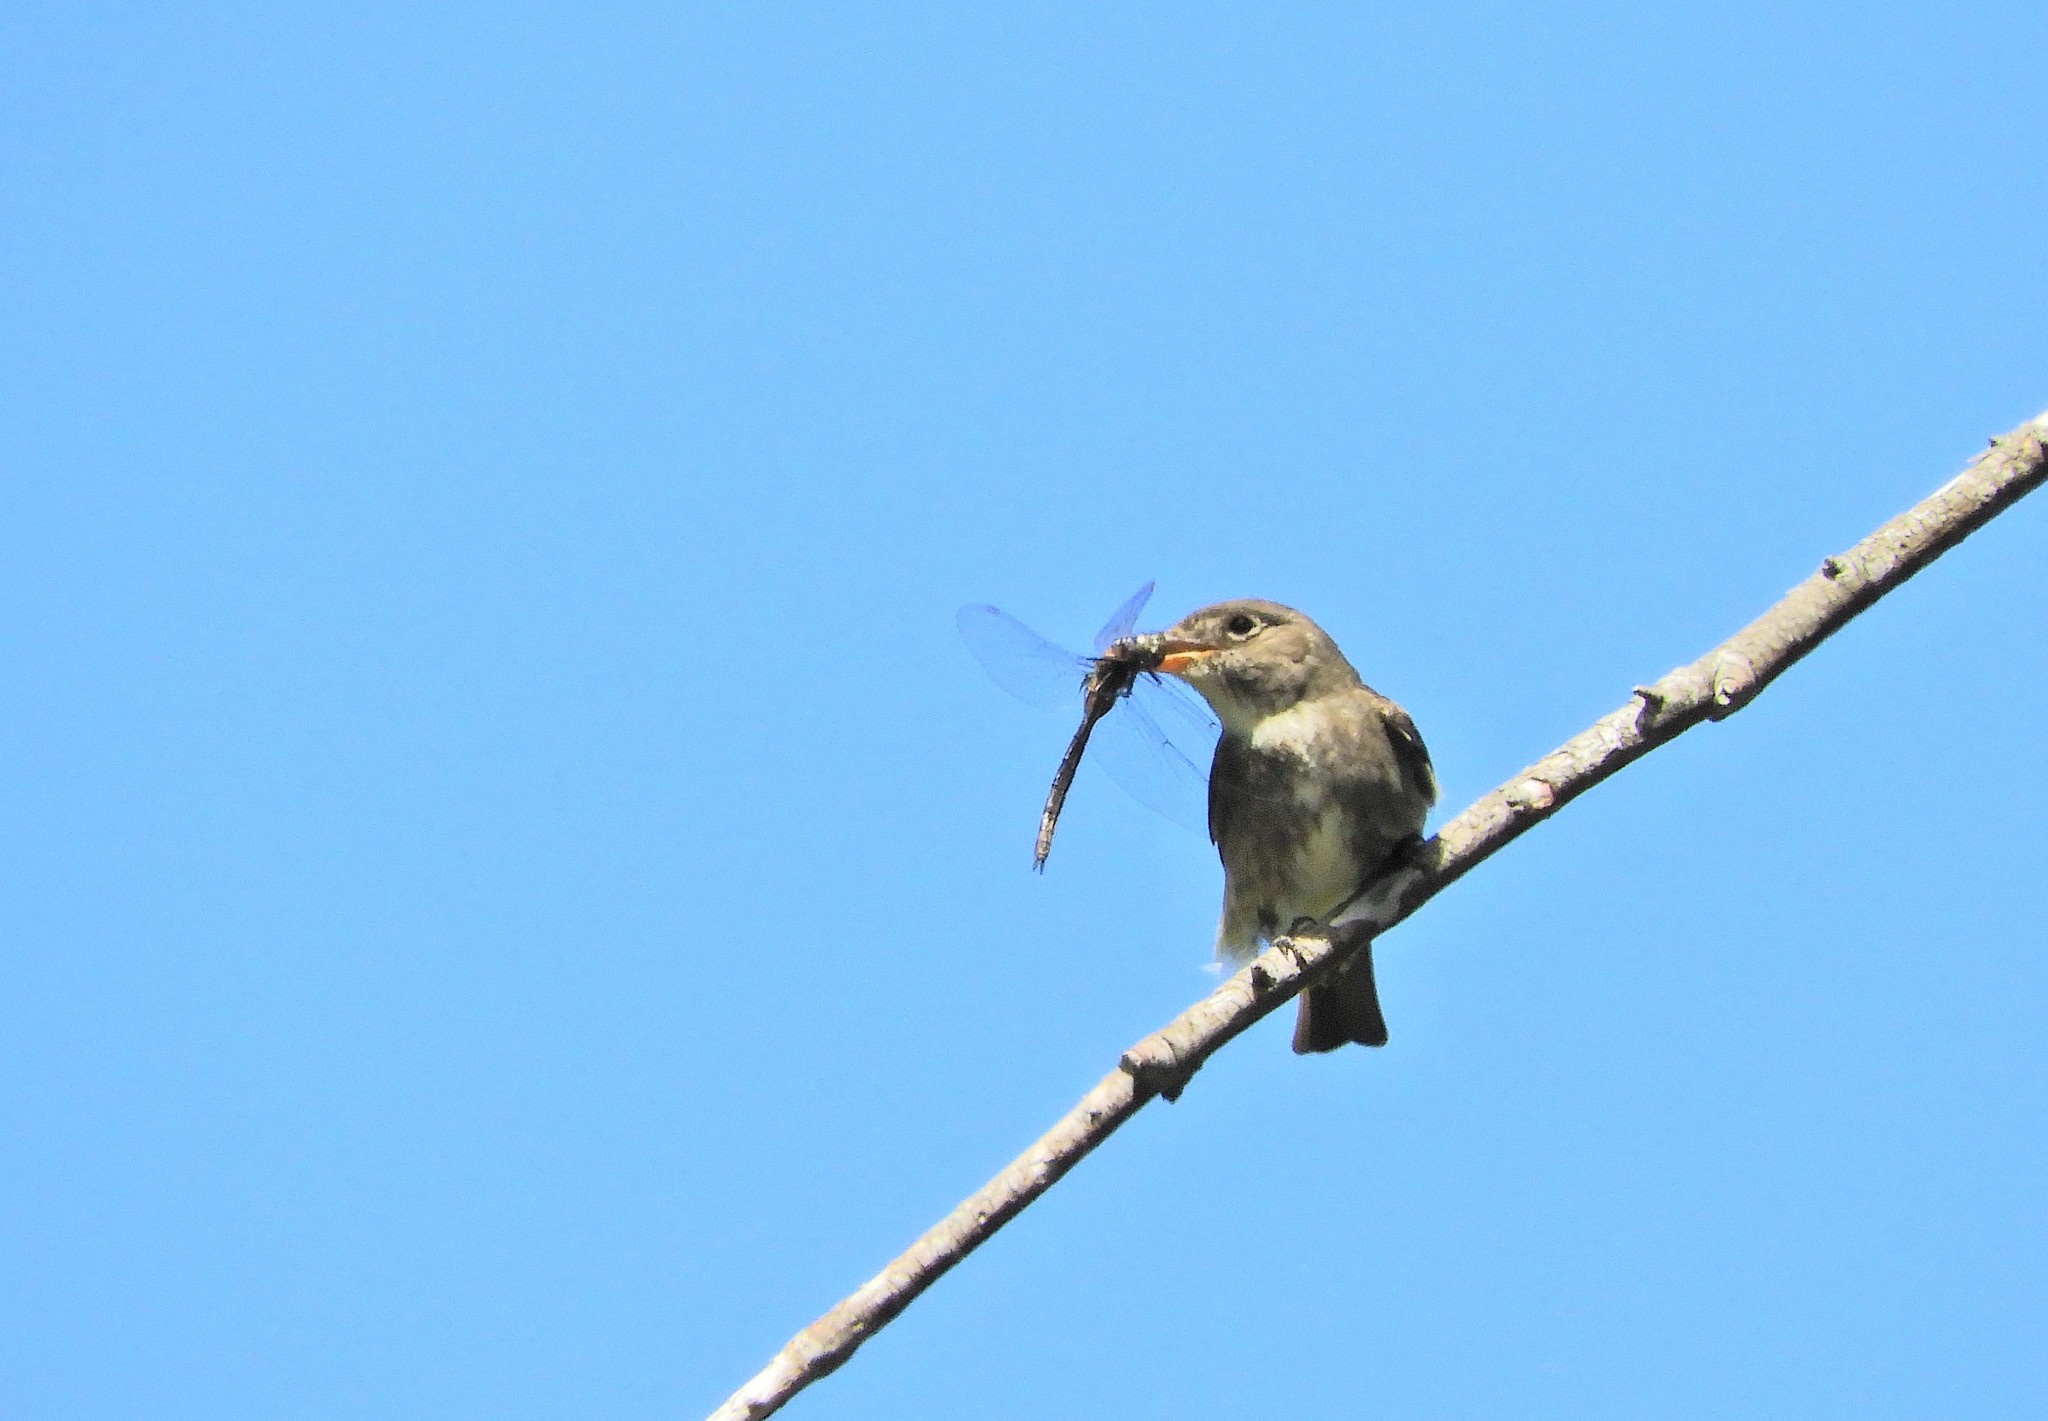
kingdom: Animalia
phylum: Chordata
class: Aves
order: Passeriformes
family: Tyrannidae
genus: Contopus
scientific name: Contopus cooperi
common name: Olive-sided flycatcher
